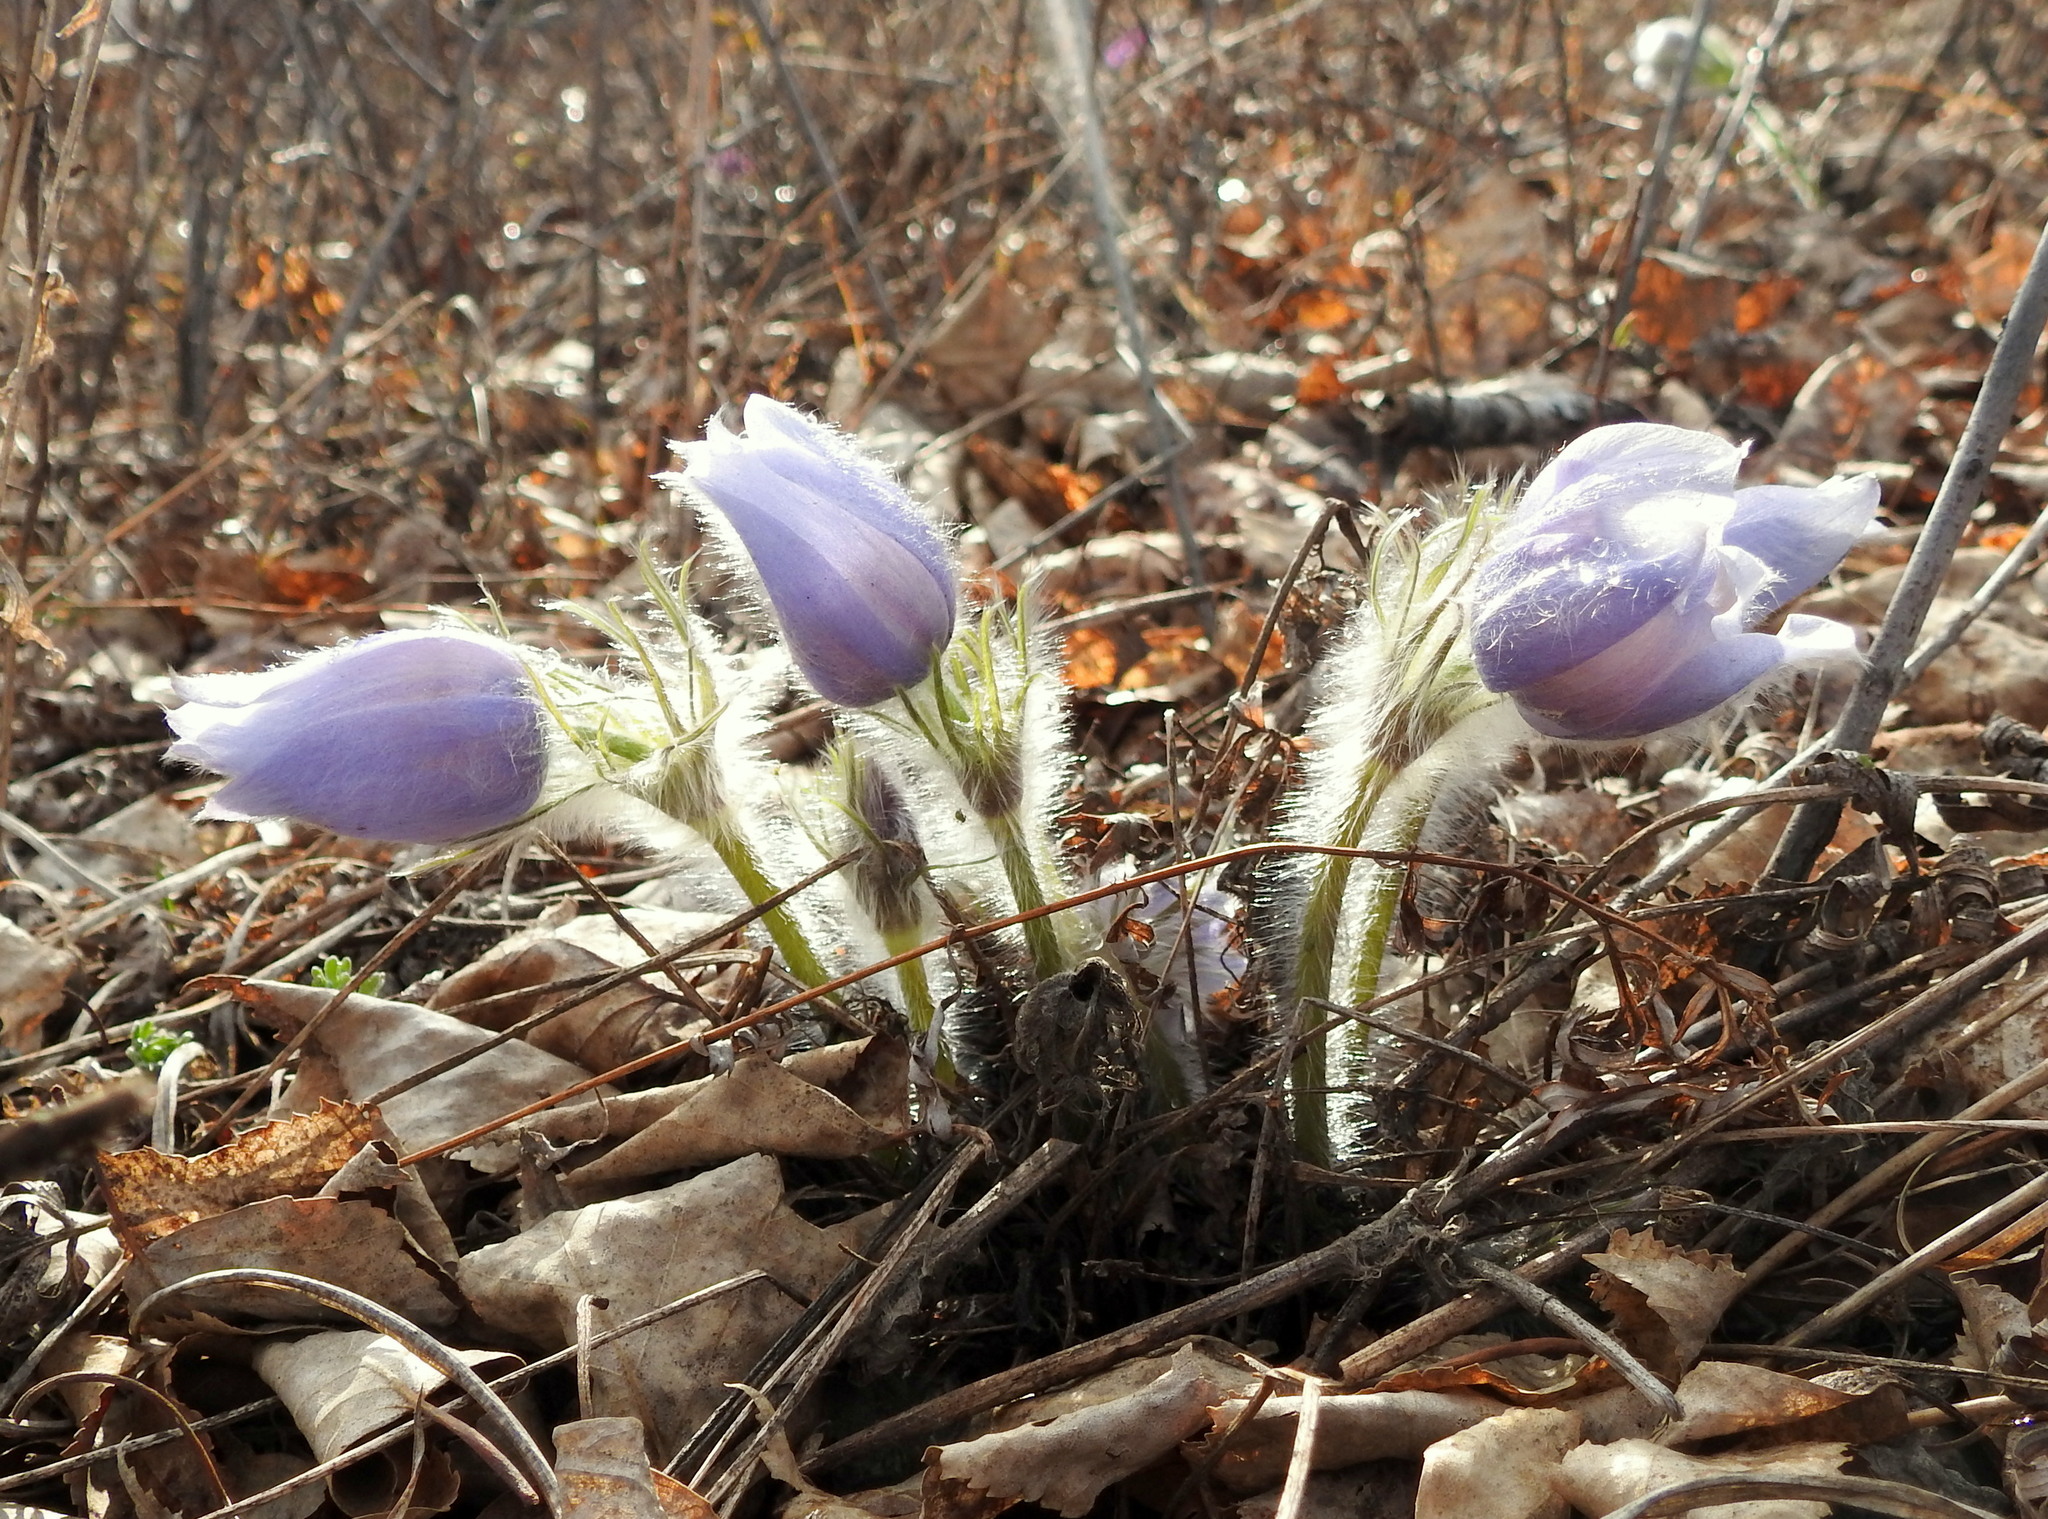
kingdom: Plantae
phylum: Tracheophyta
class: Magnoliopsida
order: Ranunculales
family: Ranunculaceae
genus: Pulsatilla
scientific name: Pulsatilla patens
